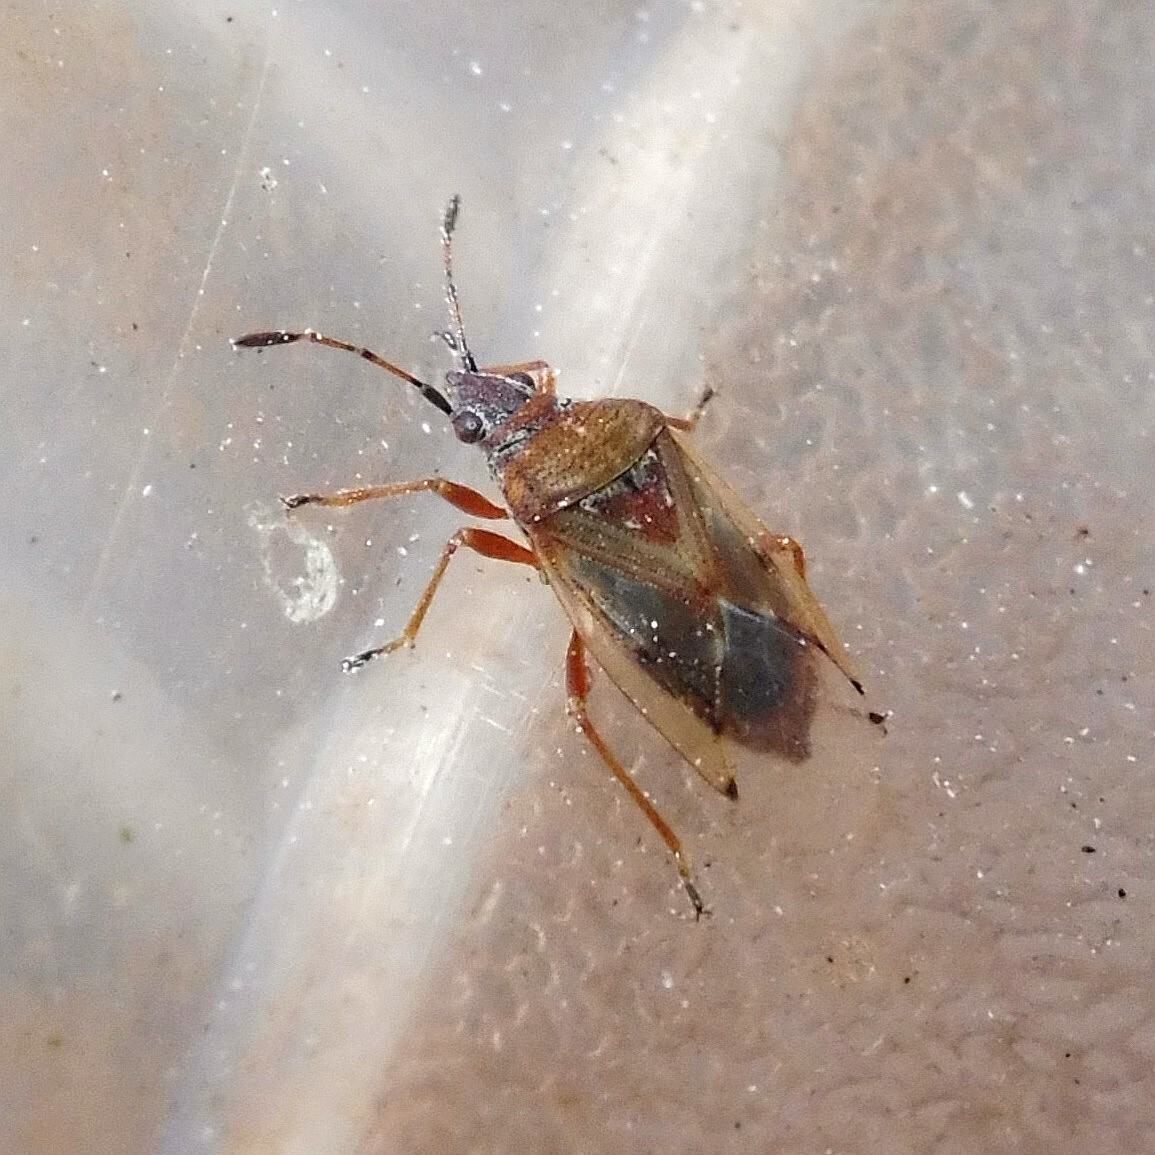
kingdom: Animalia
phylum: Arthropoda
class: Insecta
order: Hemiptera
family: Lygaeidae
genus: Kleidocerys
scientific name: Kleidocerys resedae
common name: Birch catkin bug
